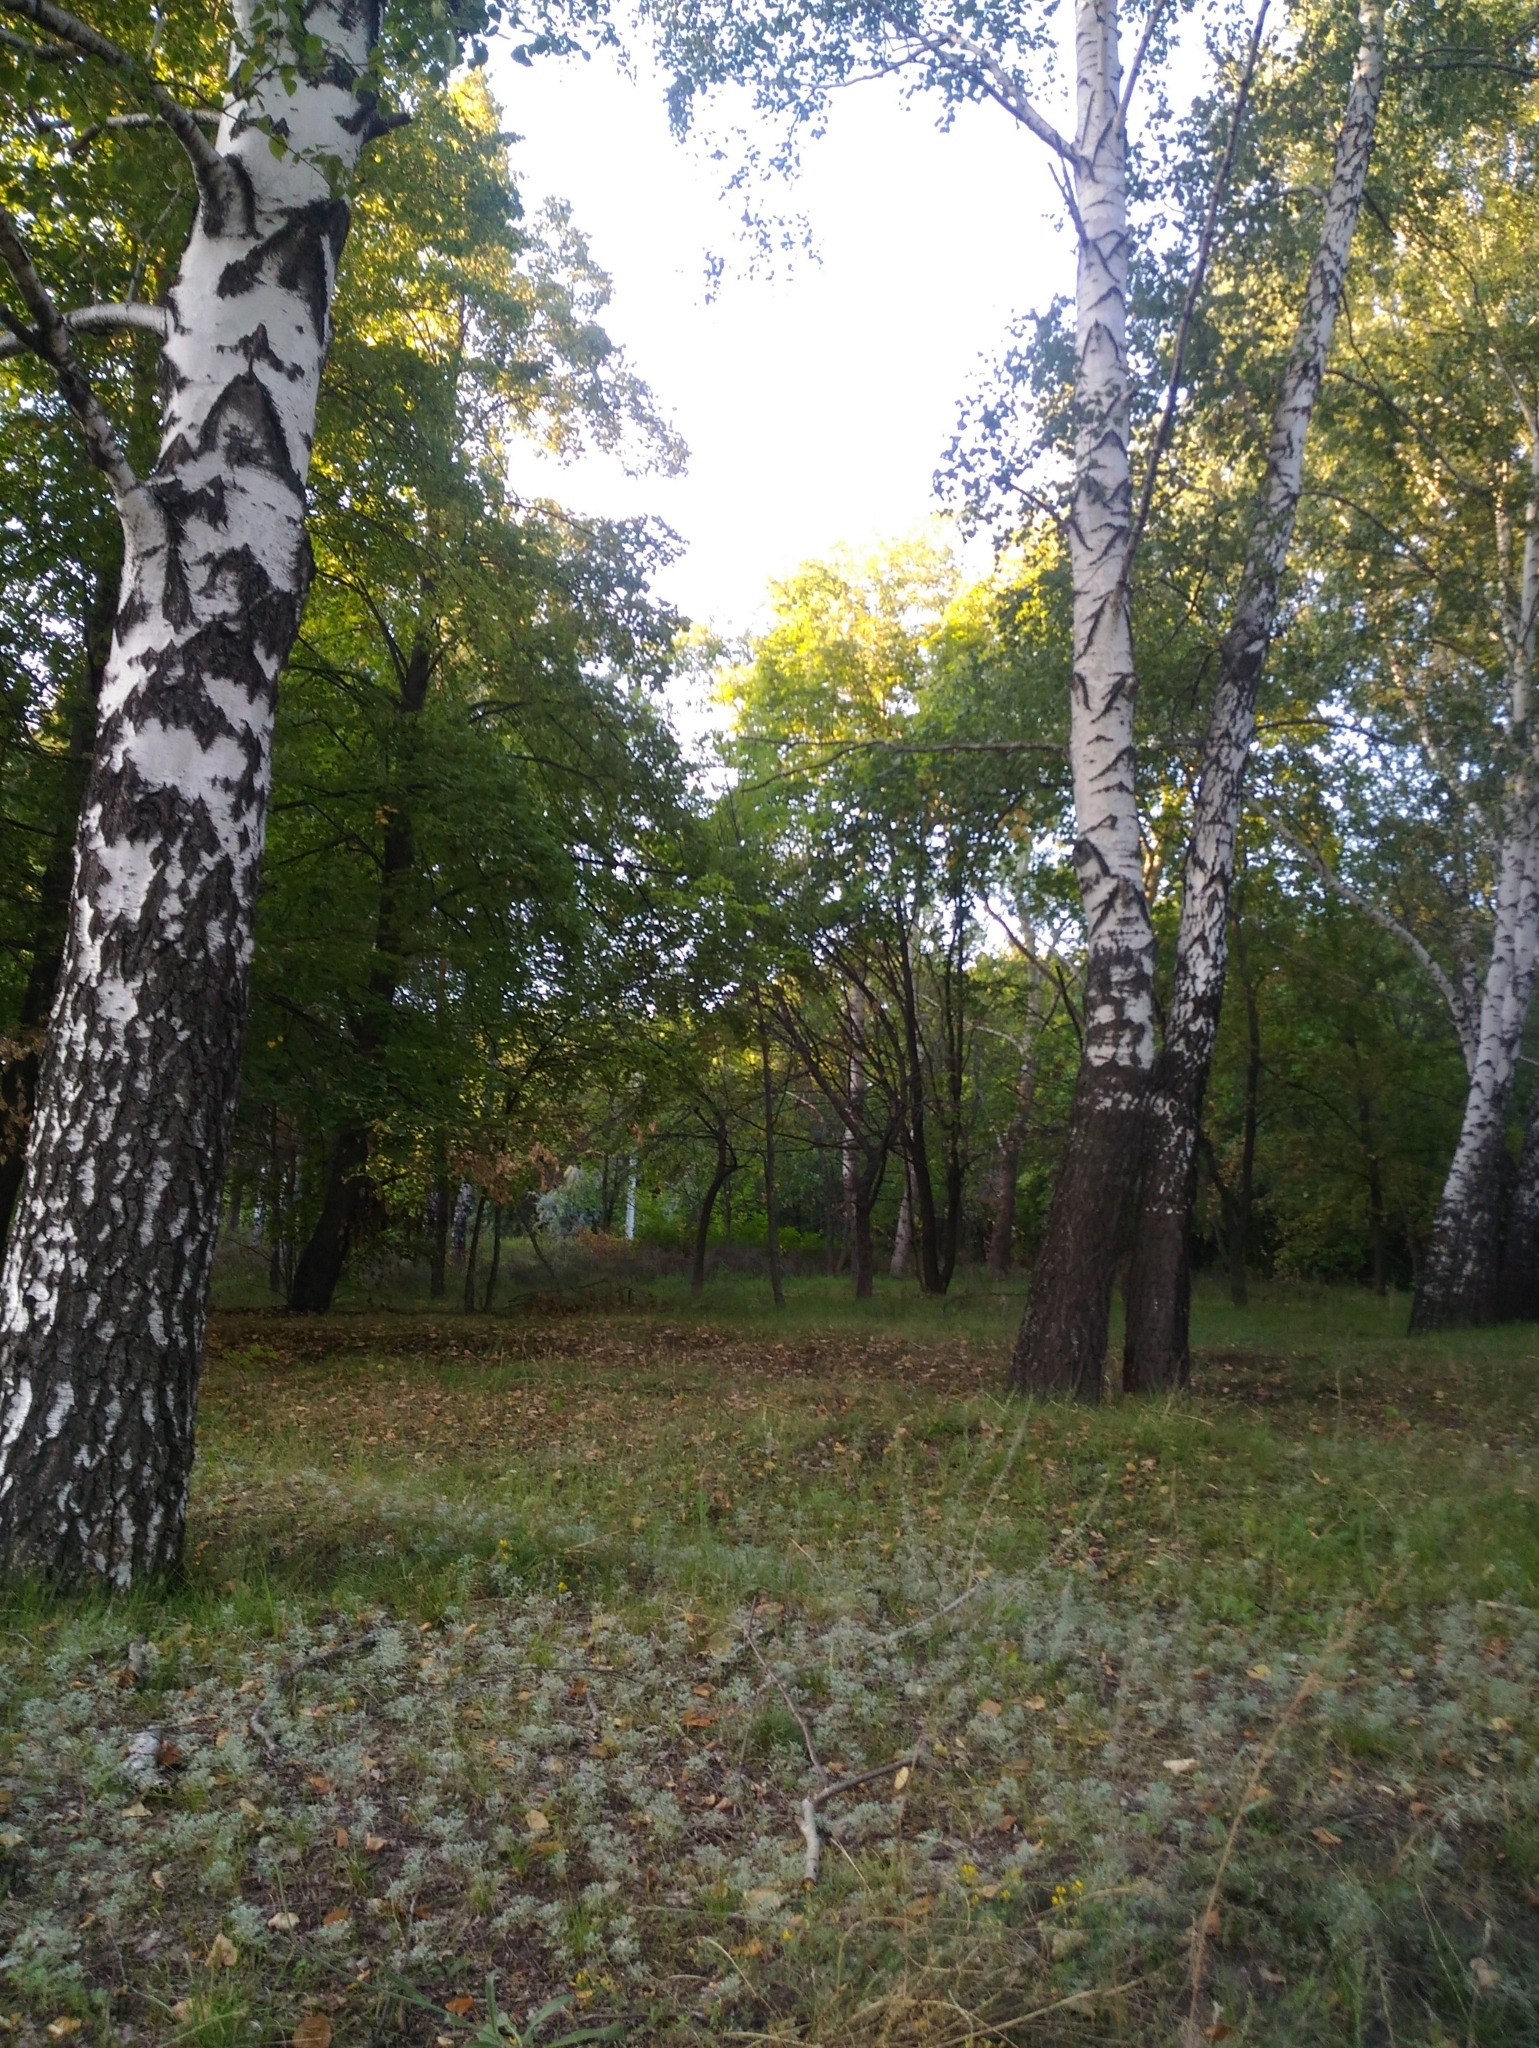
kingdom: Plantae
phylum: Tracheophyta
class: Magnoliopsida
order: Fagales
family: Betulaceae
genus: Betula
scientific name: Betula pendula
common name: Silver birch
